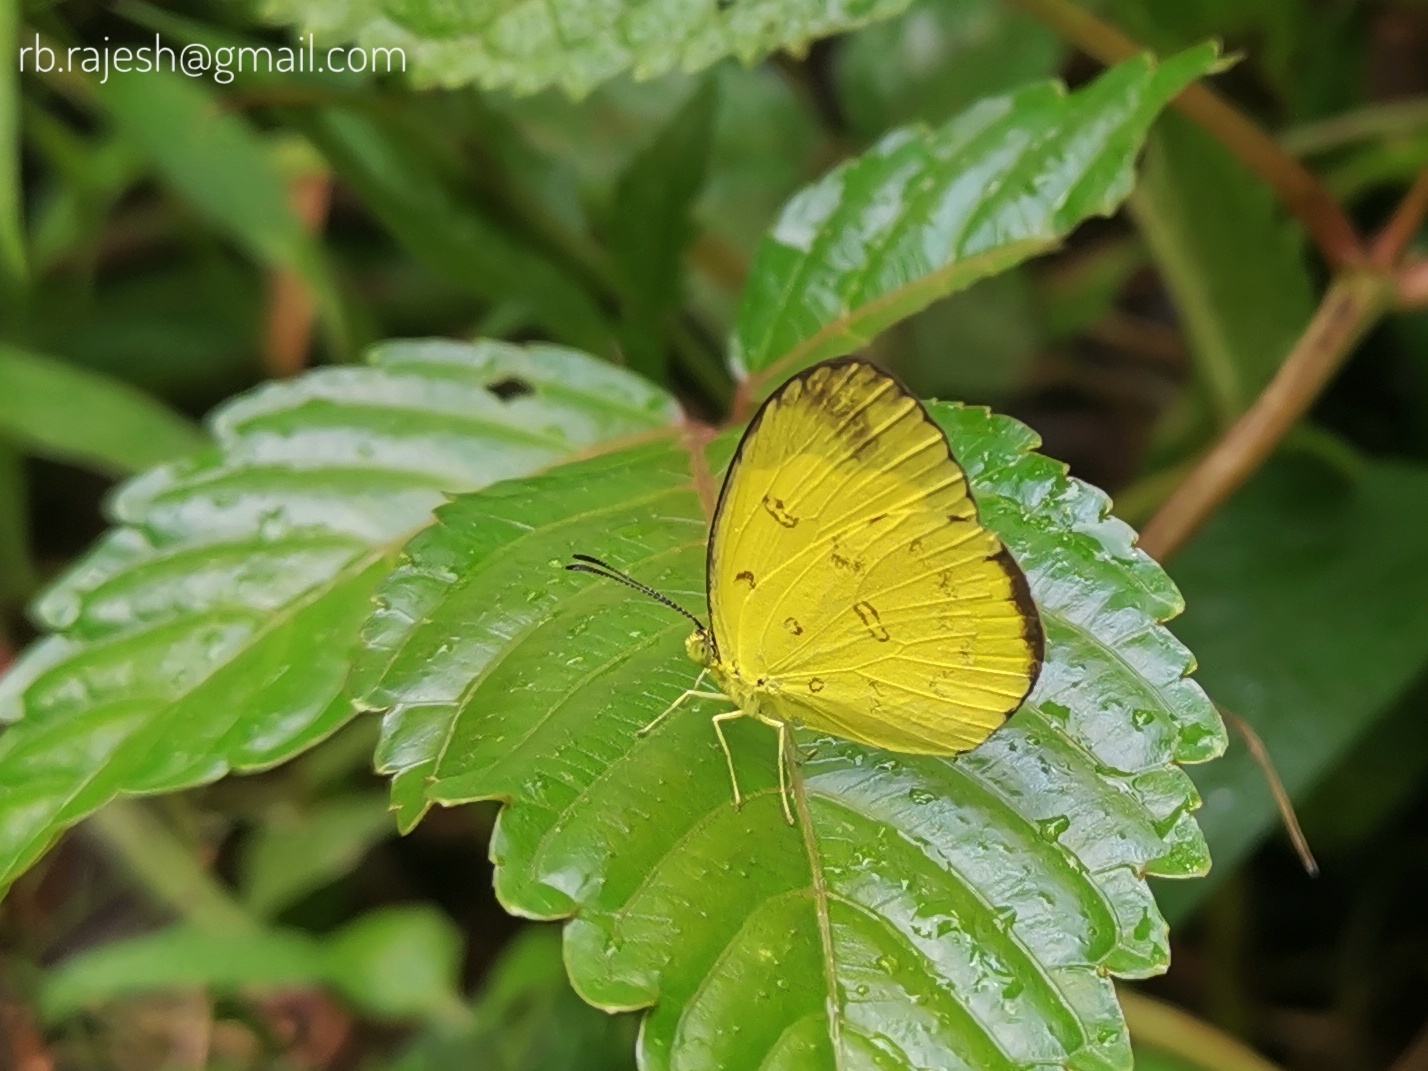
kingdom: Animalia
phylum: Arthropoda
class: Insecta
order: Lepidoptera
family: Pieridae
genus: Eurema
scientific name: Eurema andersoni
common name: One-spot yellow grass
